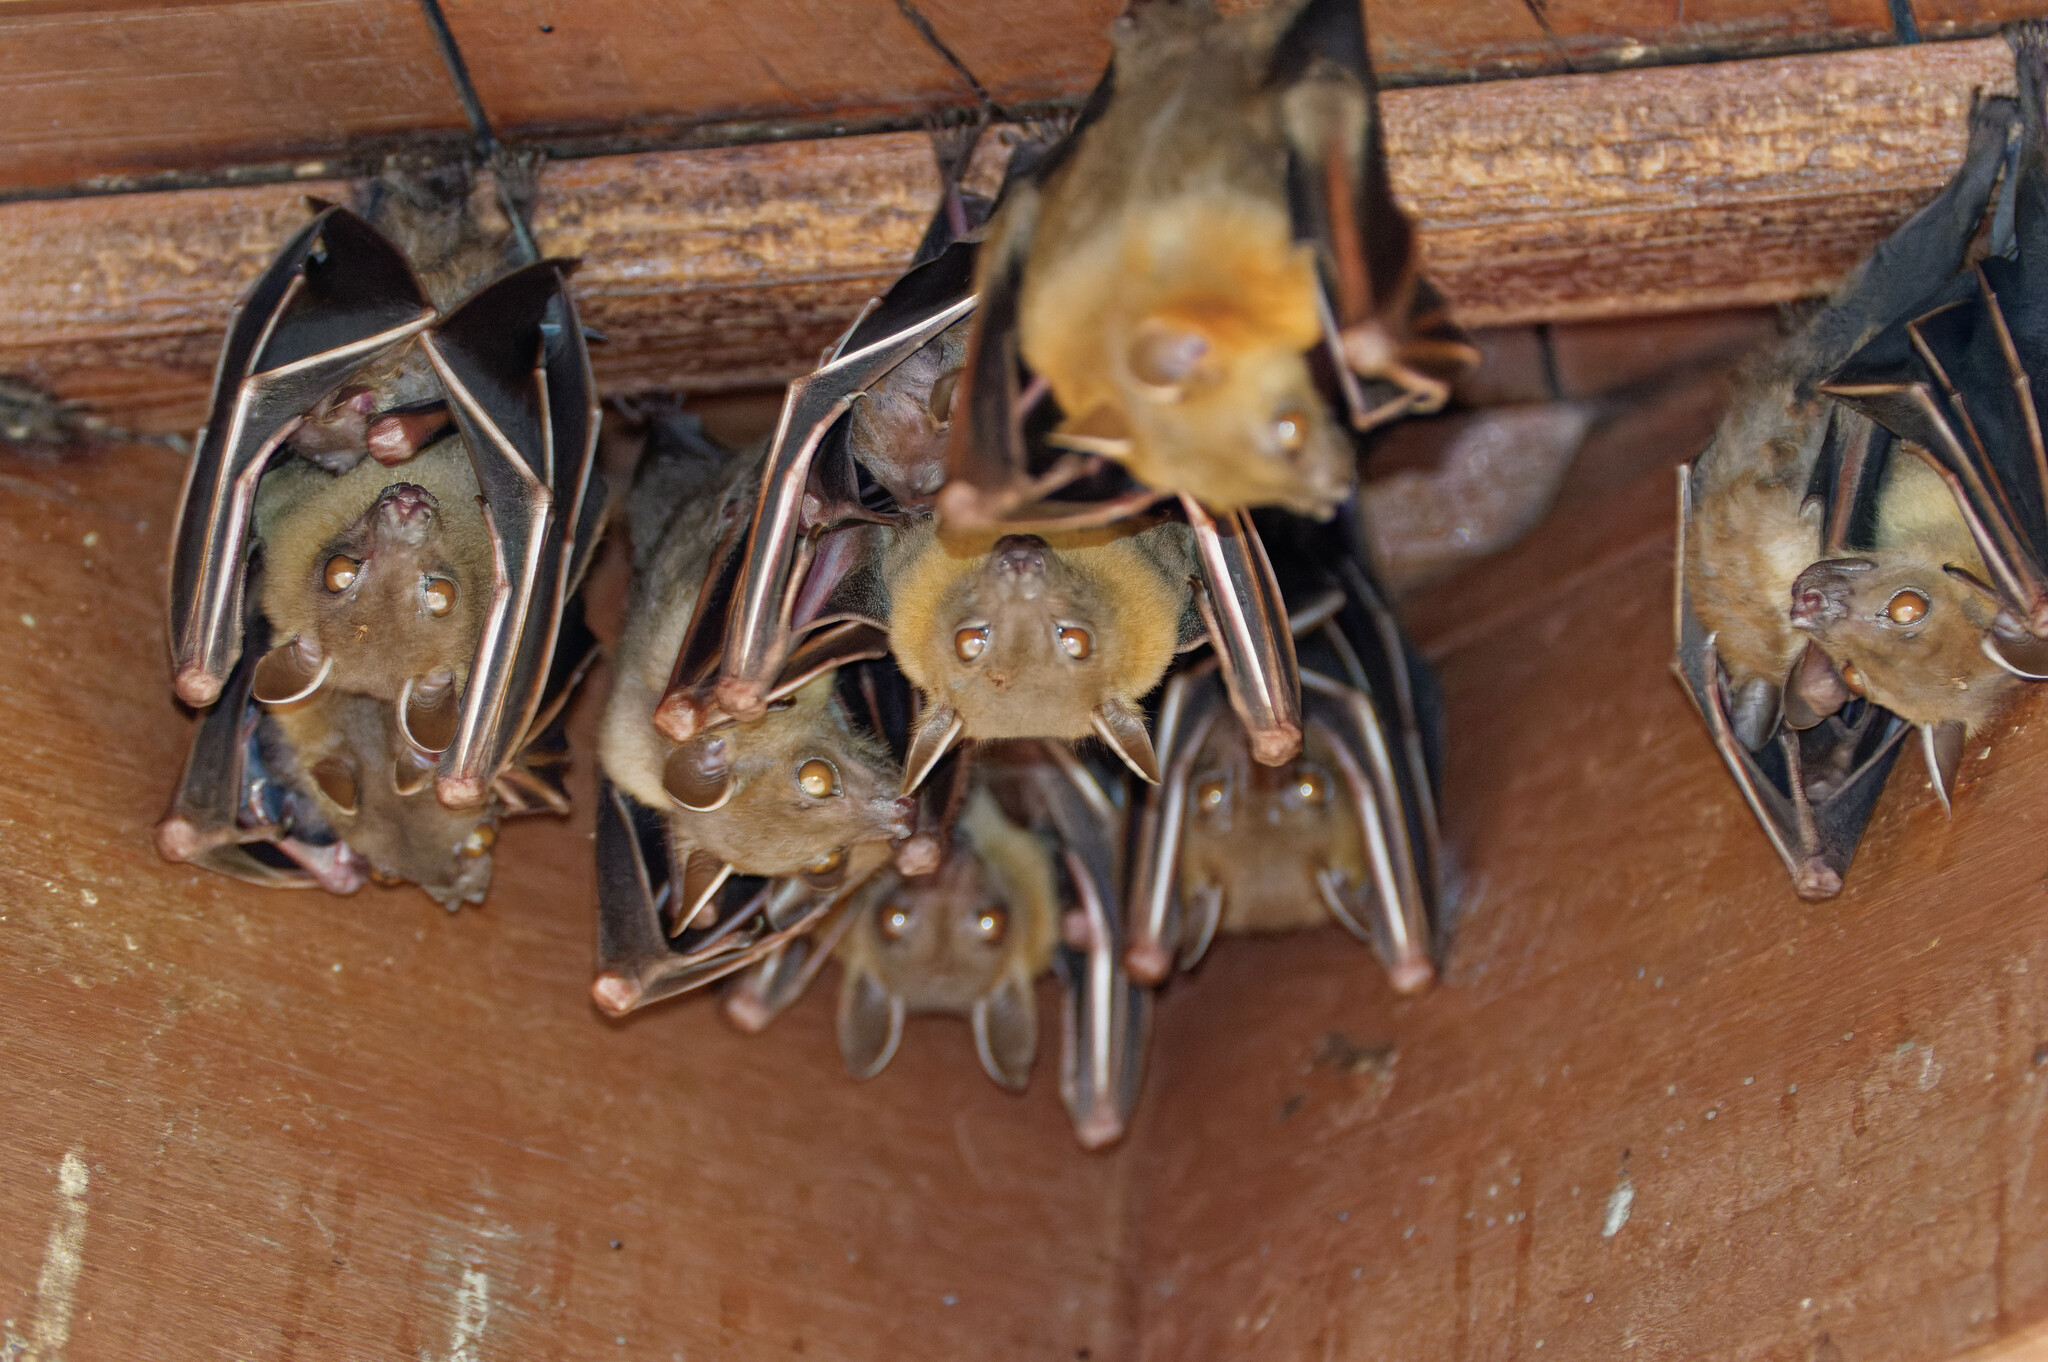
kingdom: Animalia
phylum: Chordata
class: Mammalia
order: Chiroptera
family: Pteropodidae
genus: Cynopterus
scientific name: Cynopterus brachyotis
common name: Lesser short-nosed fruit bat
